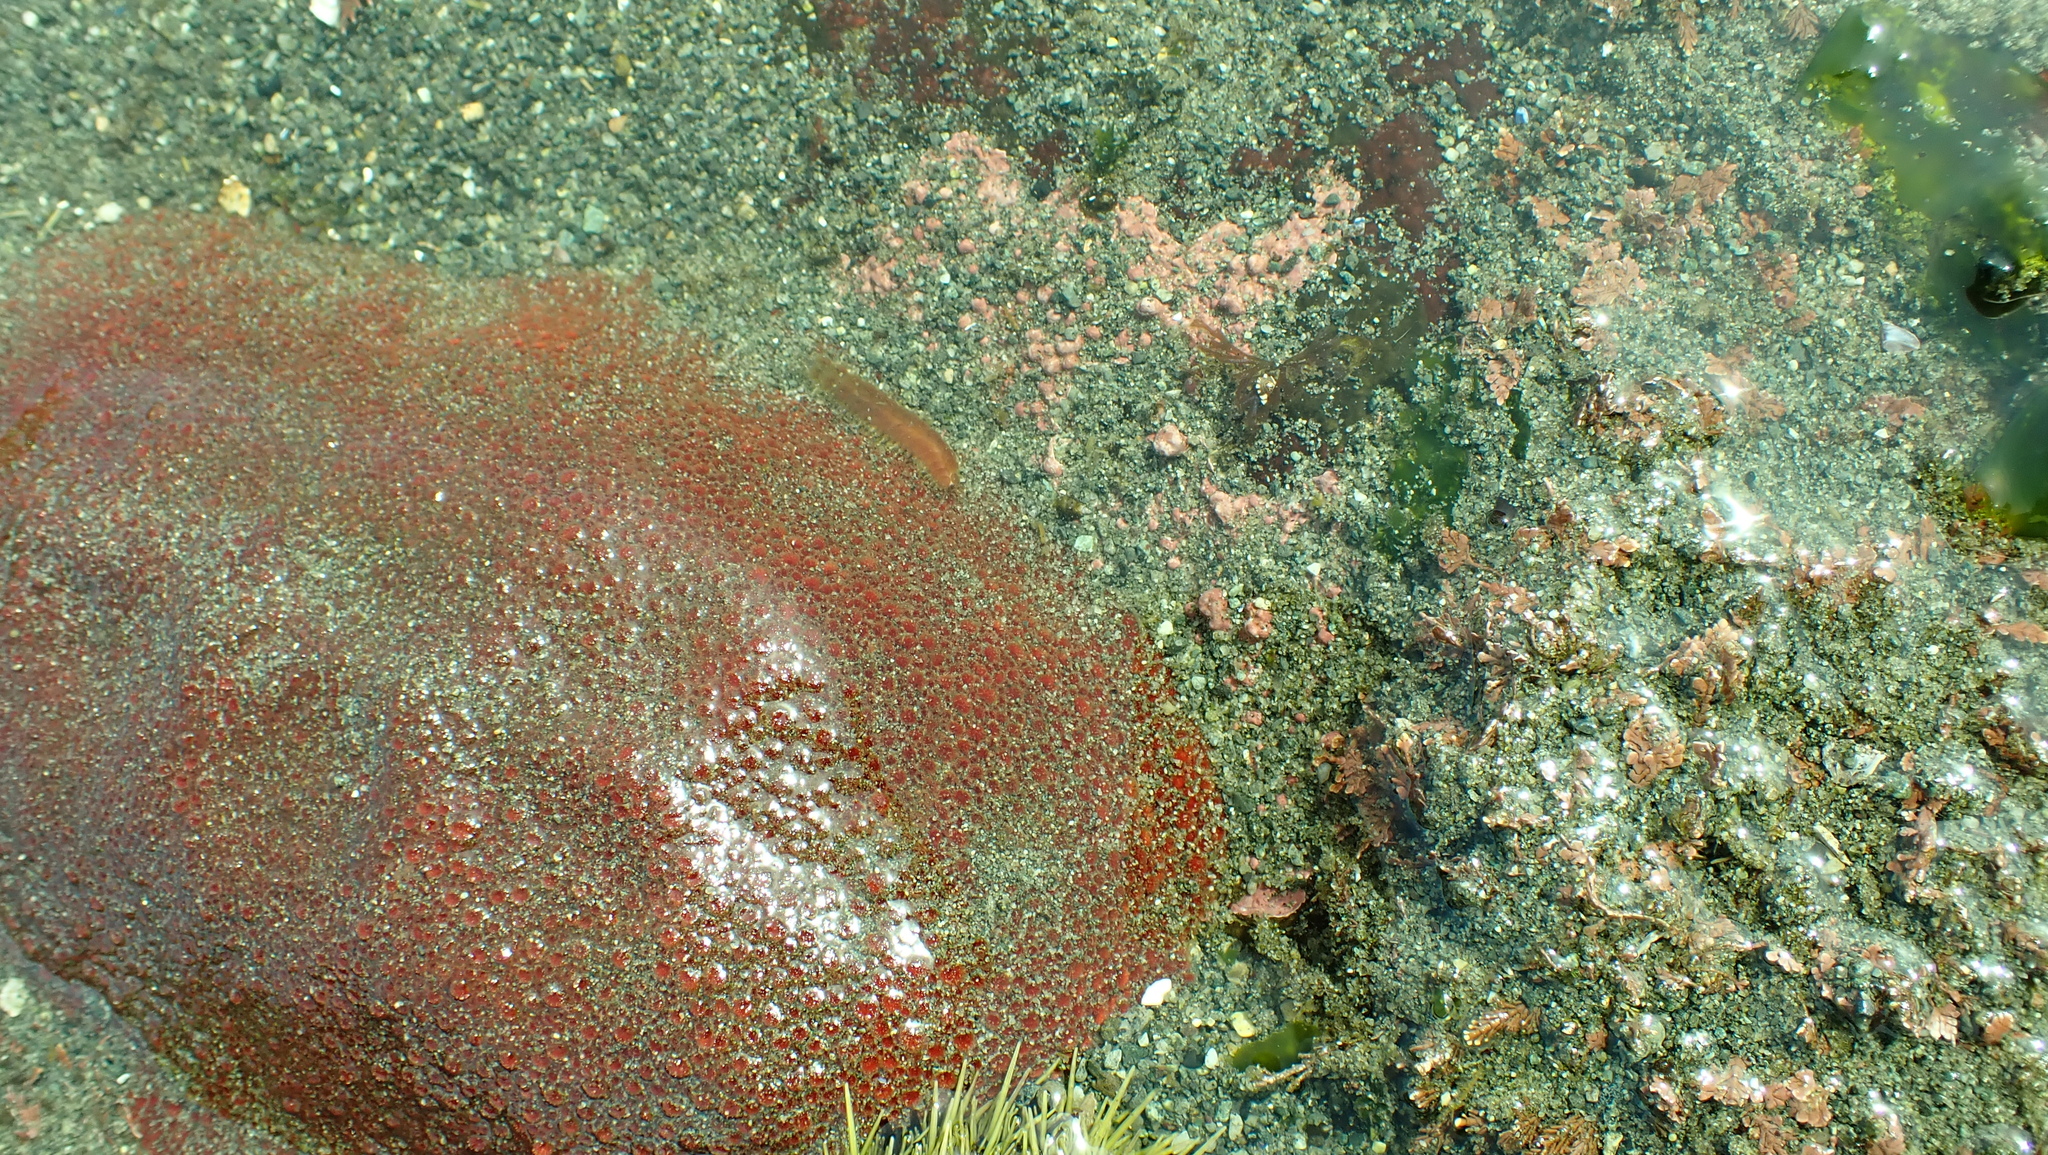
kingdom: Animalia
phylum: Mollusca
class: Polyplacophora
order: Chitonida
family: Acanthochitonidae
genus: Cryptochiton
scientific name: Cryptochiton stelleri
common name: Giant pacific chiton
